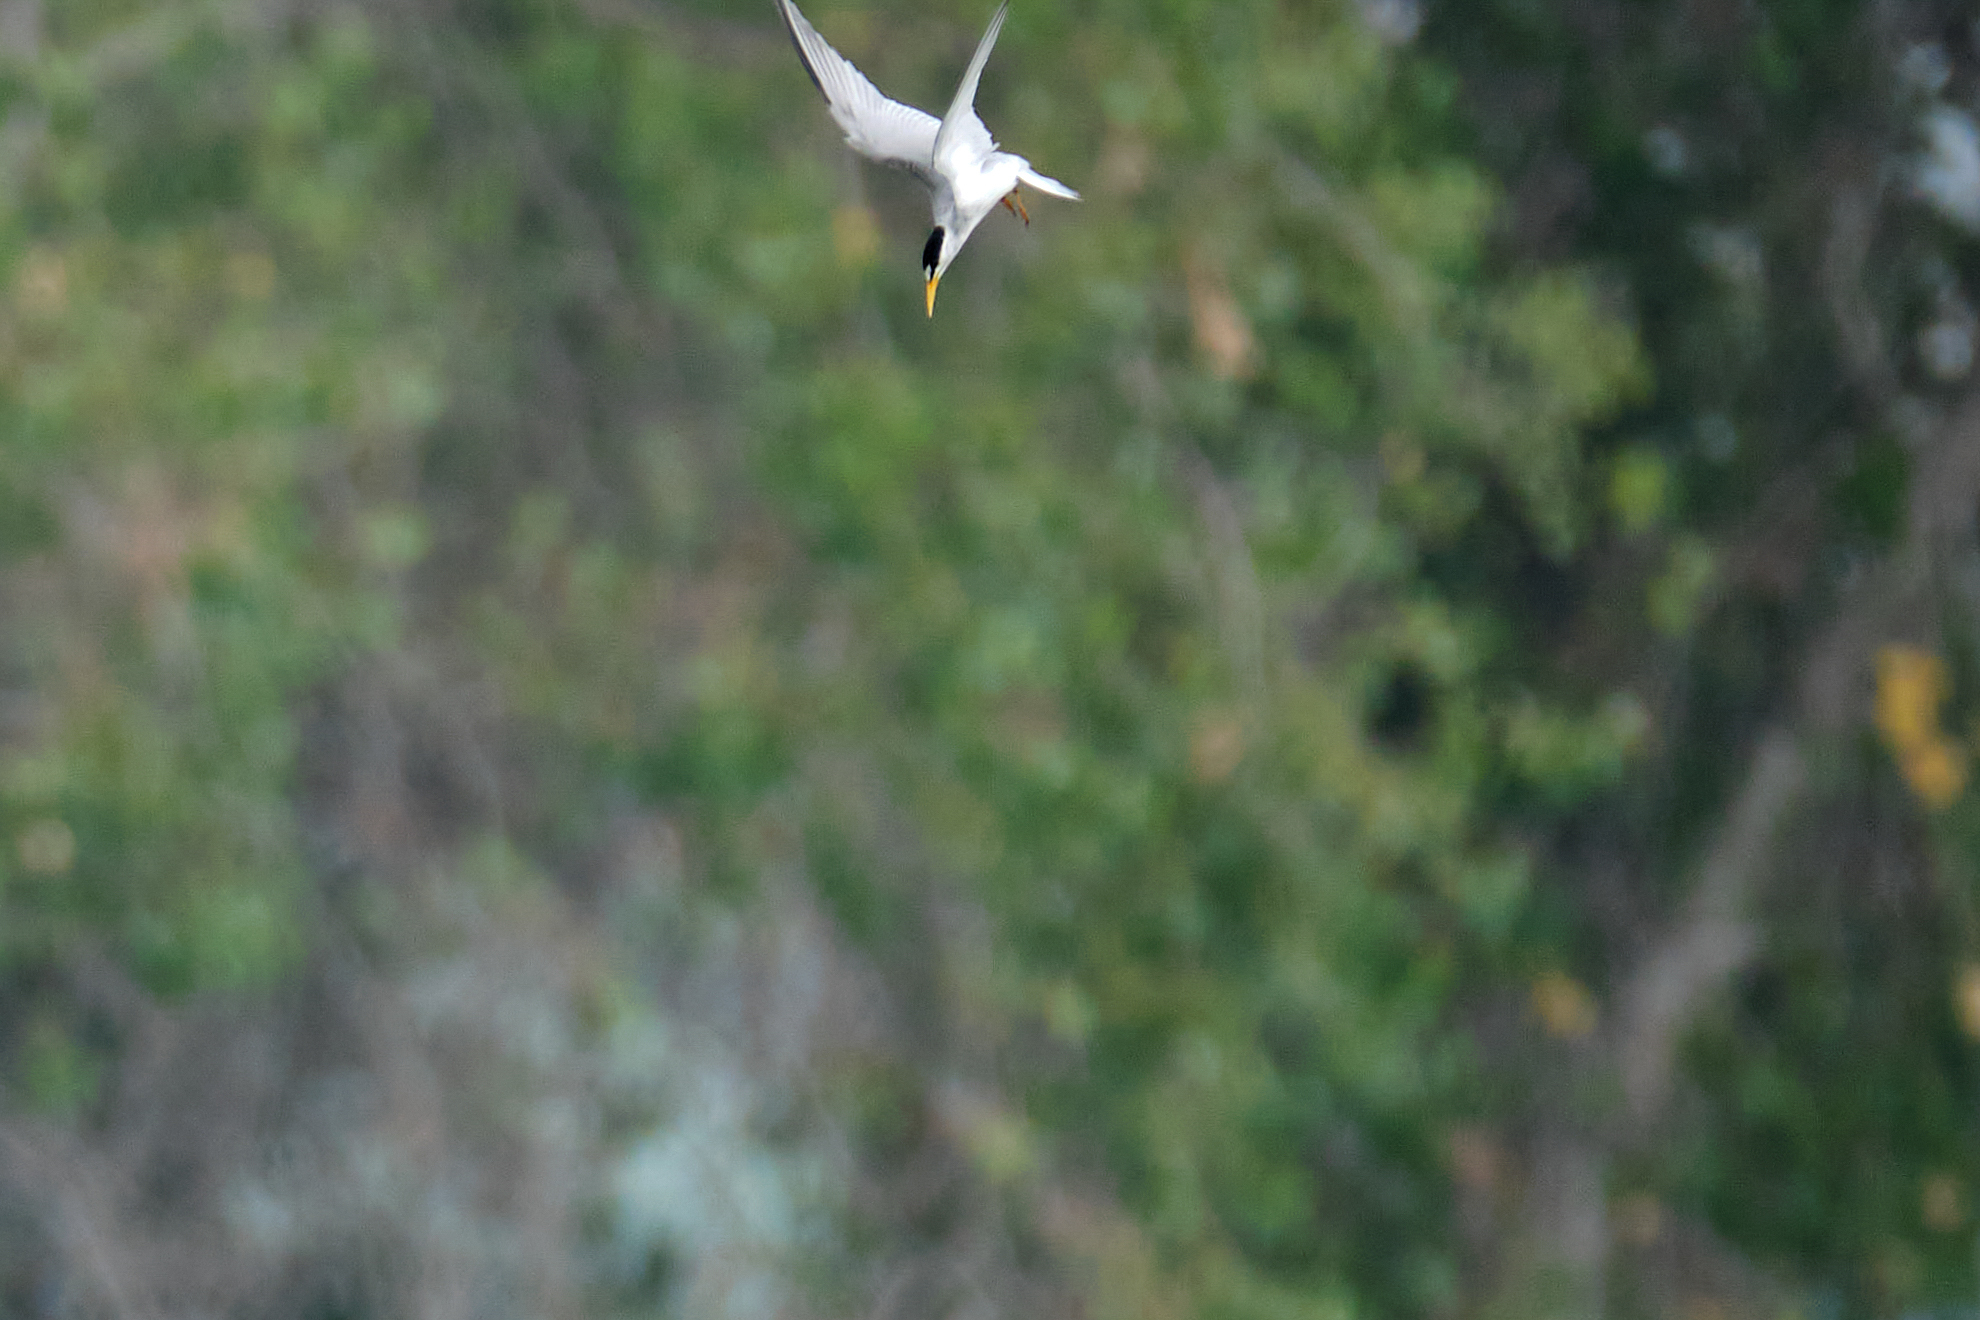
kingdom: Animalia
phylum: Chordata
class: Aves
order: Charadriiformes
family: Laridae
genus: Sternula
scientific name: Sternula antillarum
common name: Least tern
